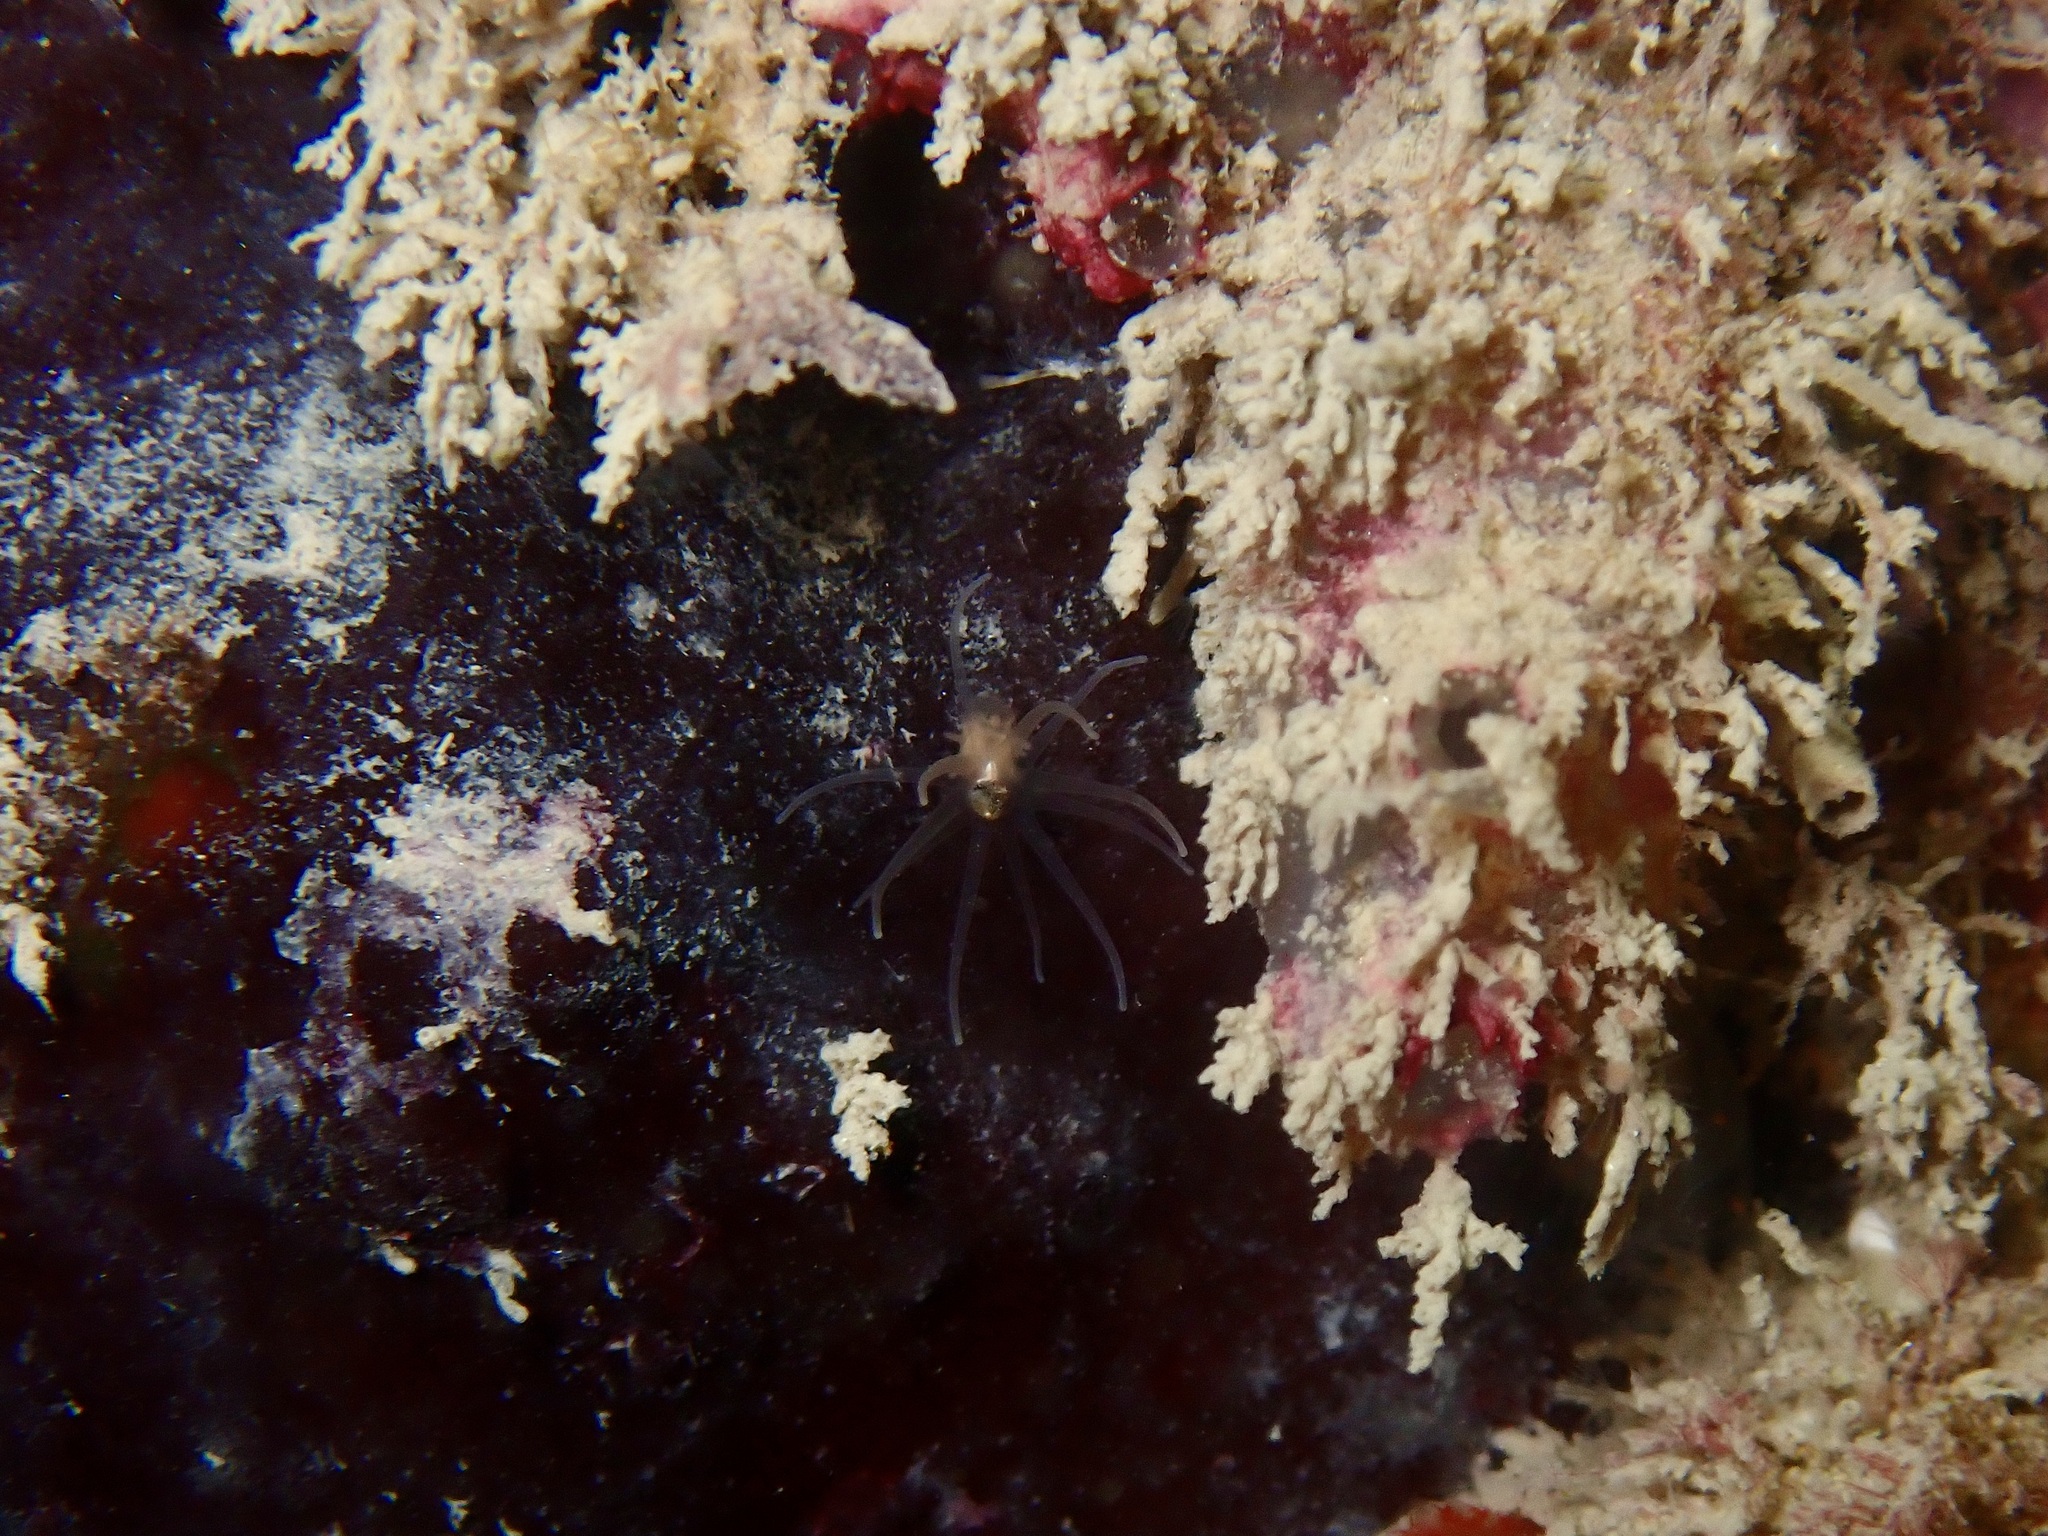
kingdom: Animalia
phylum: Cnidaria
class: Anthozoa
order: Actiniaria
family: Gonactiniidae
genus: Gonactinia
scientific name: Gonactinia prolifera
